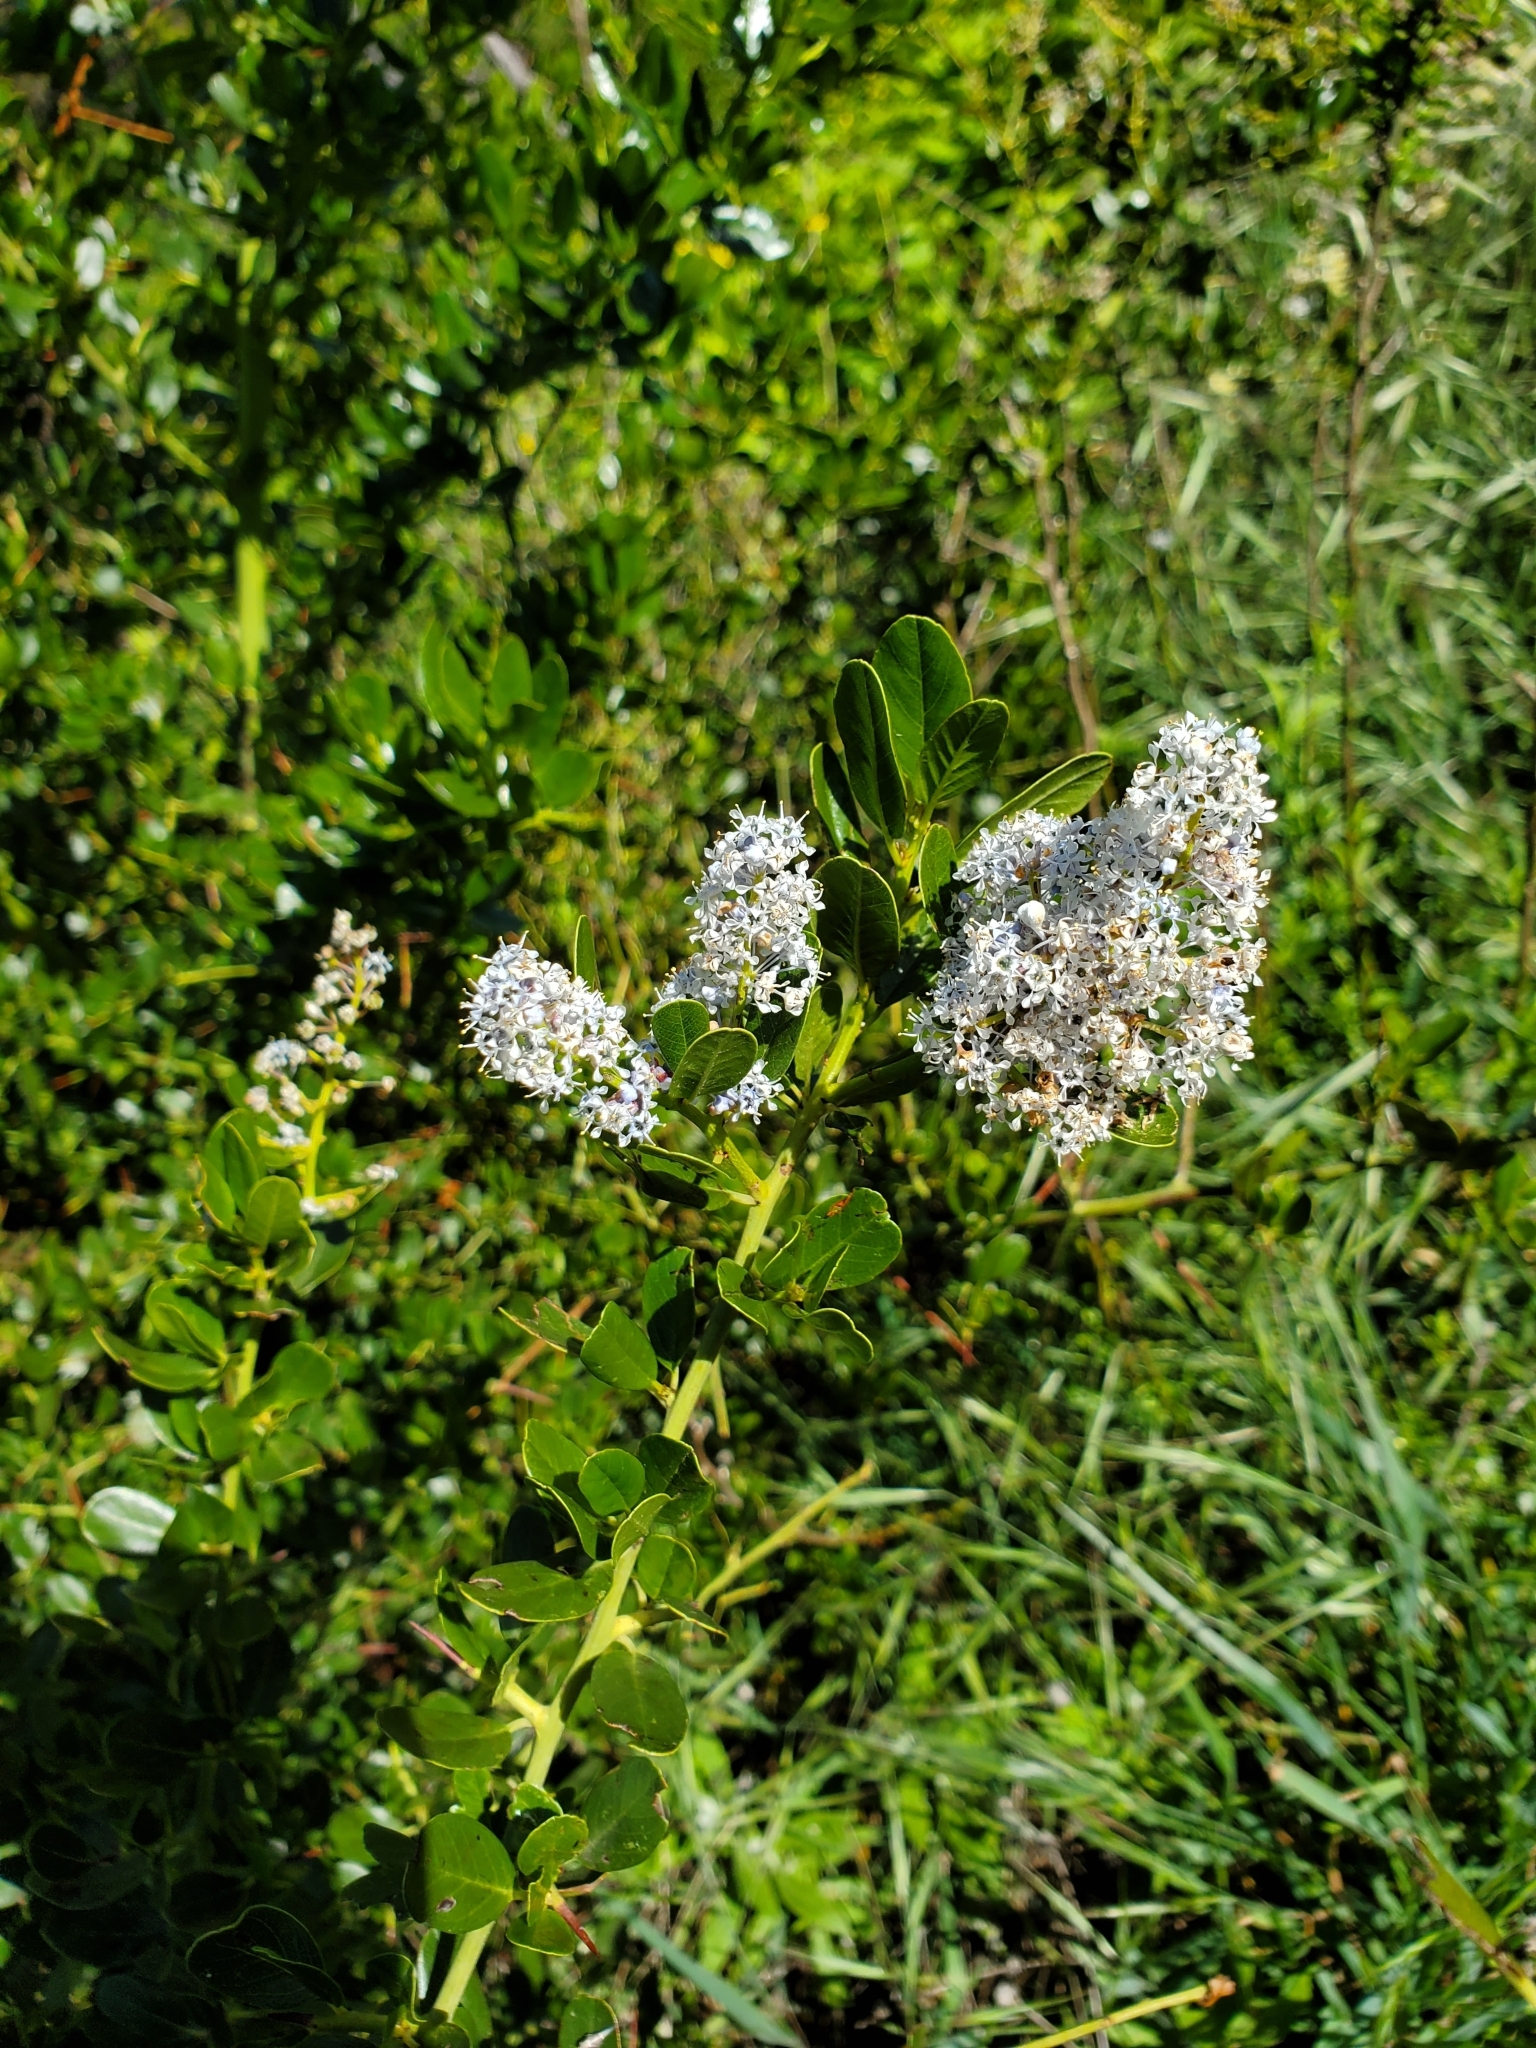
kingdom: Plantae
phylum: Tracheophyta
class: Magnoliopsida
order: Rosales
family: Rhamnaceae
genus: Ceanothus
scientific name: Ceanothus spinosus
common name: Greenbark whitethorn
